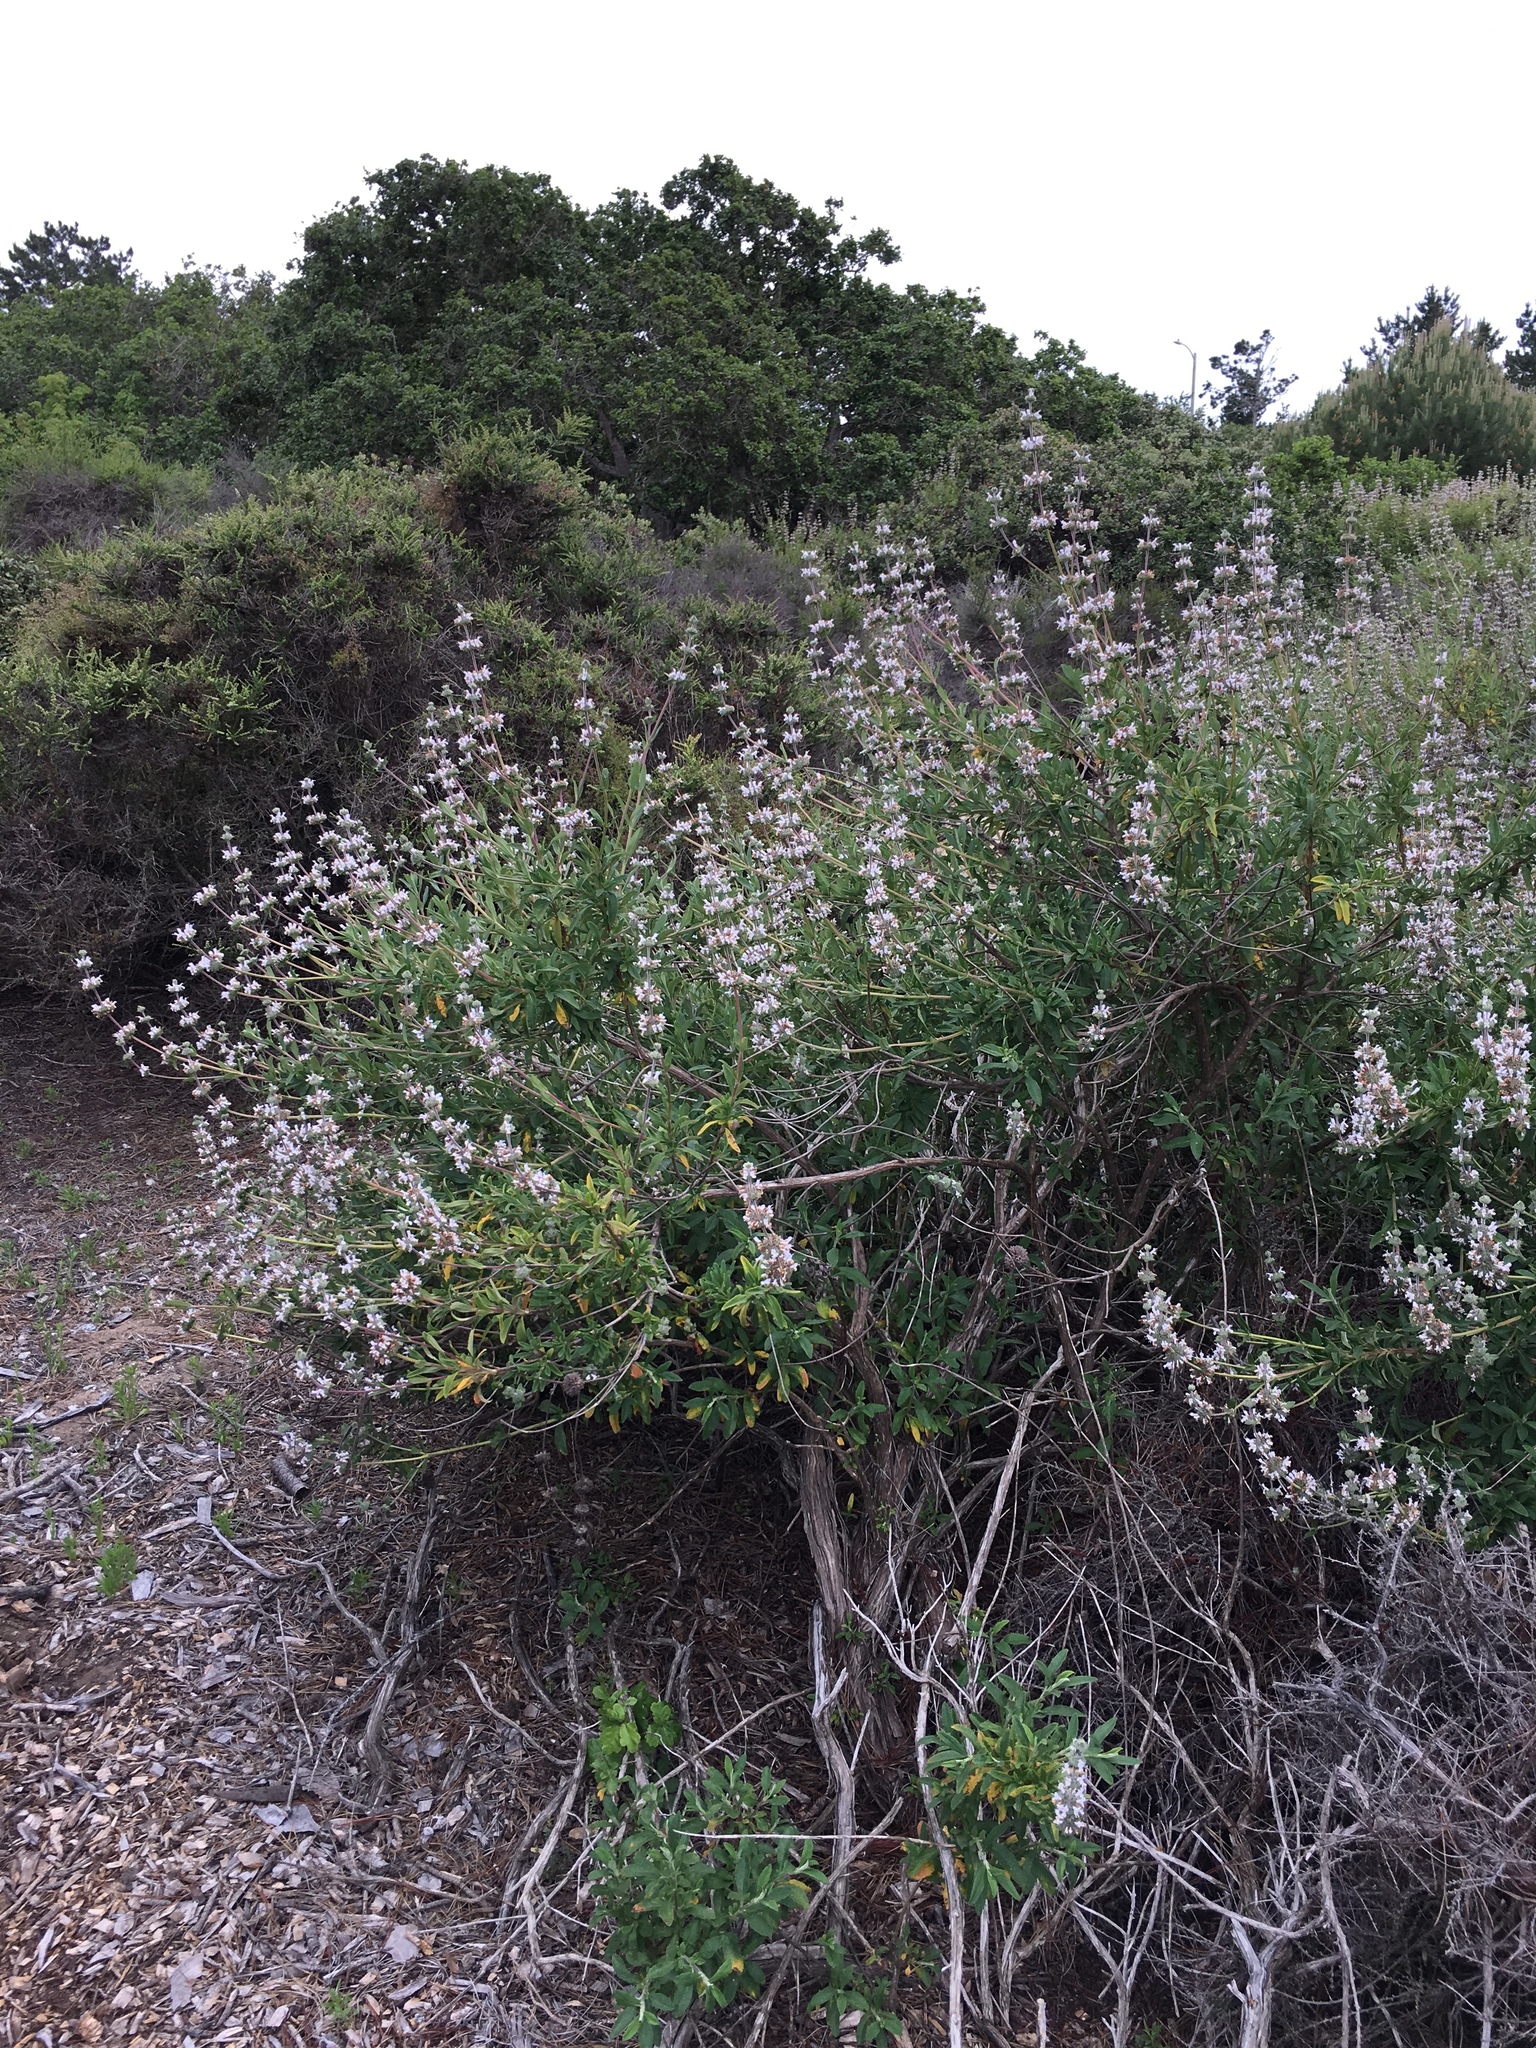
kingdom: Plantae
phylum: Tracheophyta
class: Magnoliopsida
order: Lamiales
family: Lamiaceae
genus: Salvia
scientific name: Salvia mellifera
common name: Black sage
